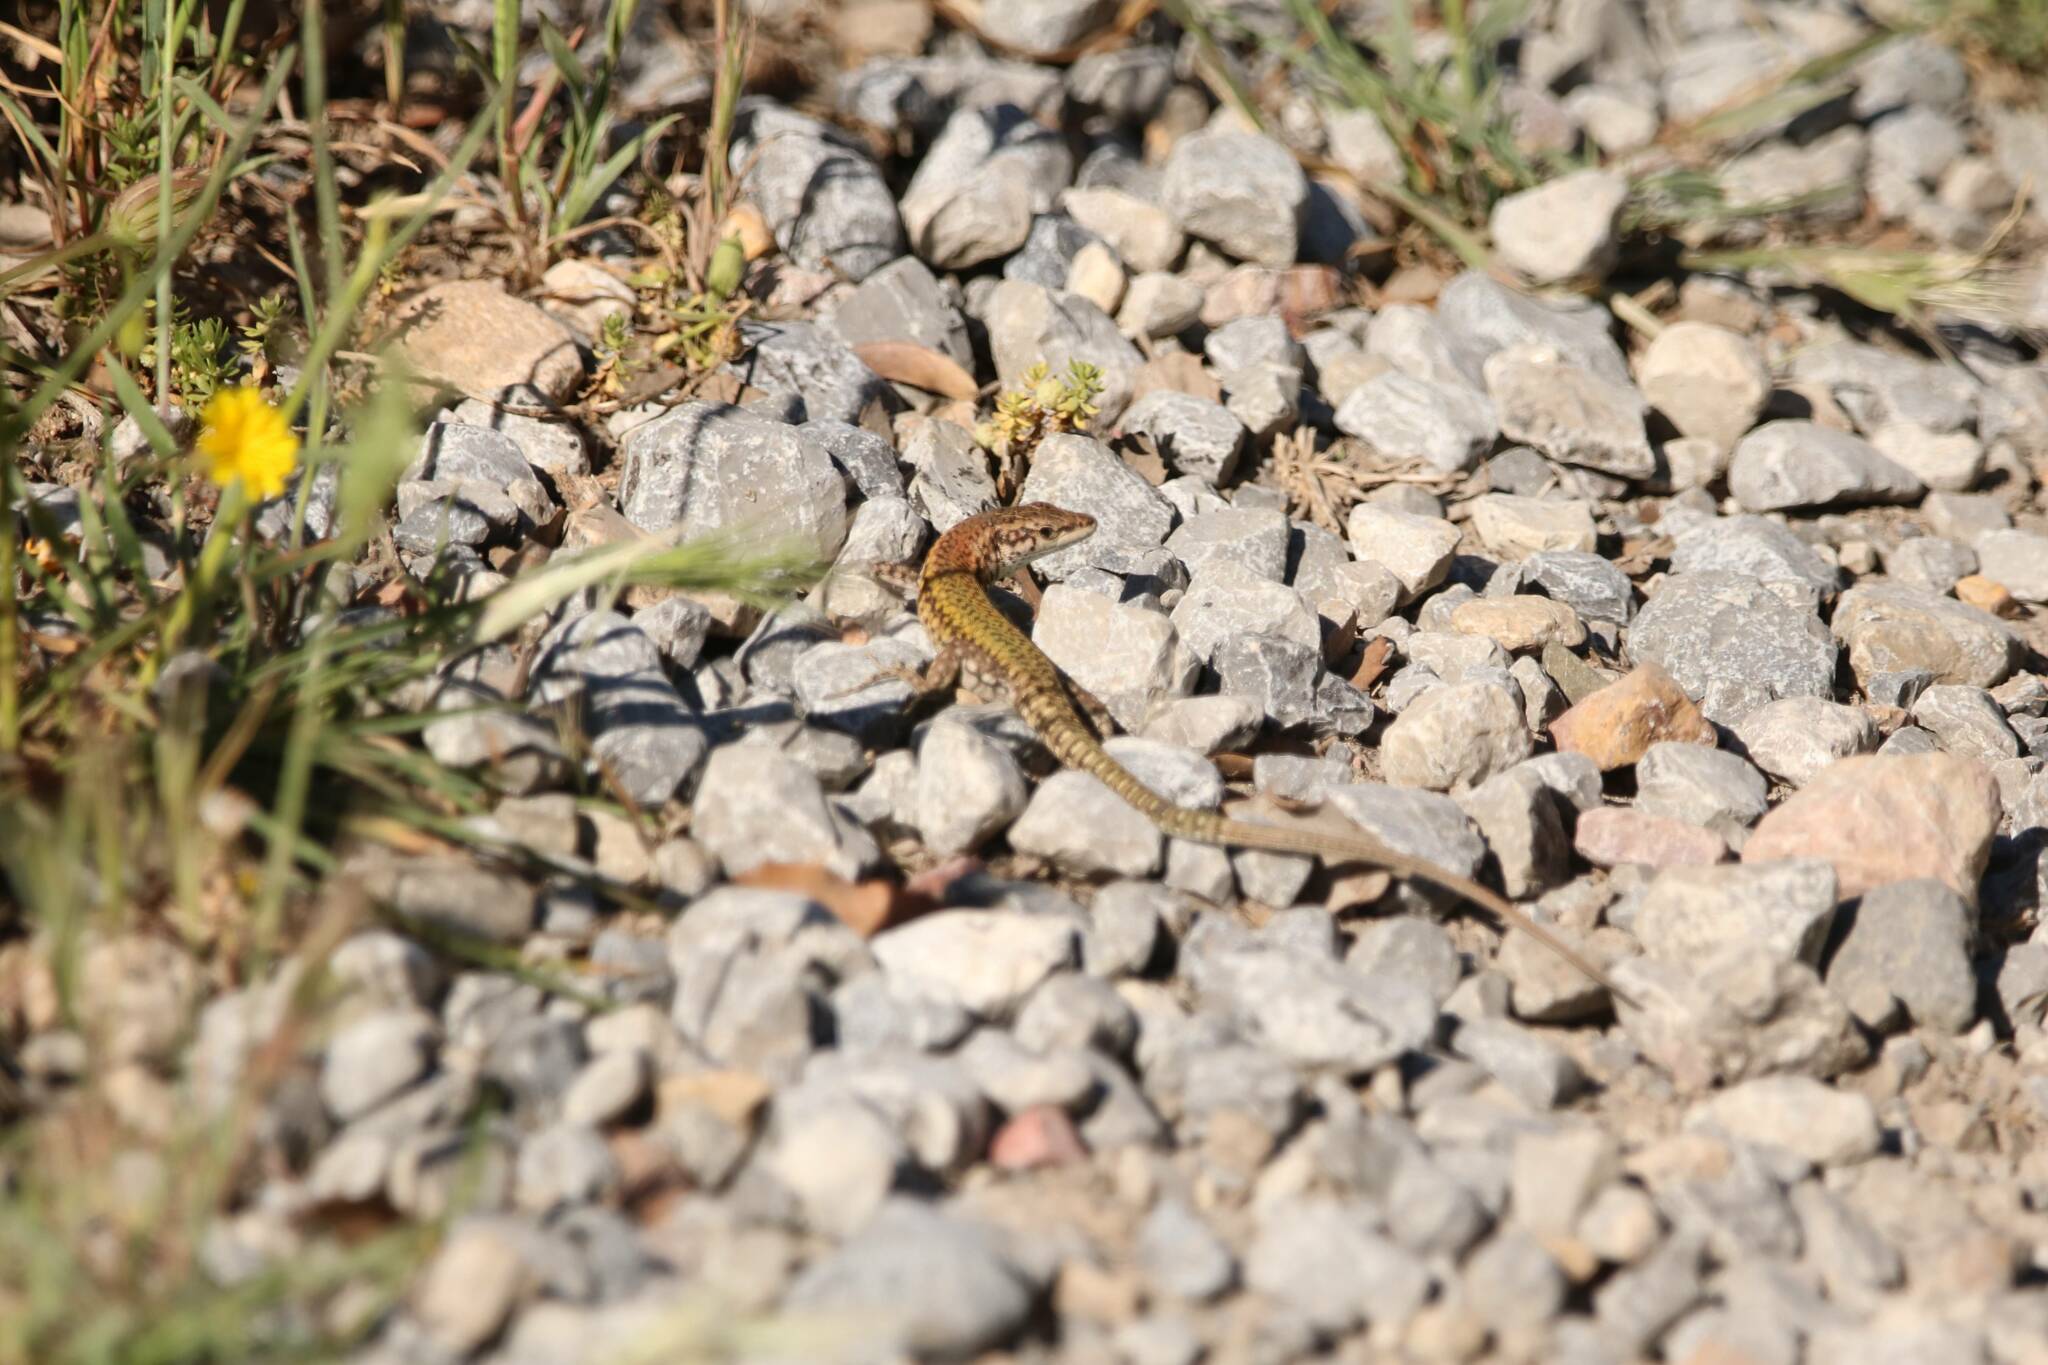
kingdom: Animalia
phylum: Chordata
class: Squamata
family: Lacertidae
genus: Podarcis
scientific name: Podarcis vaucheri
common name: Vaucher's wall lizard
